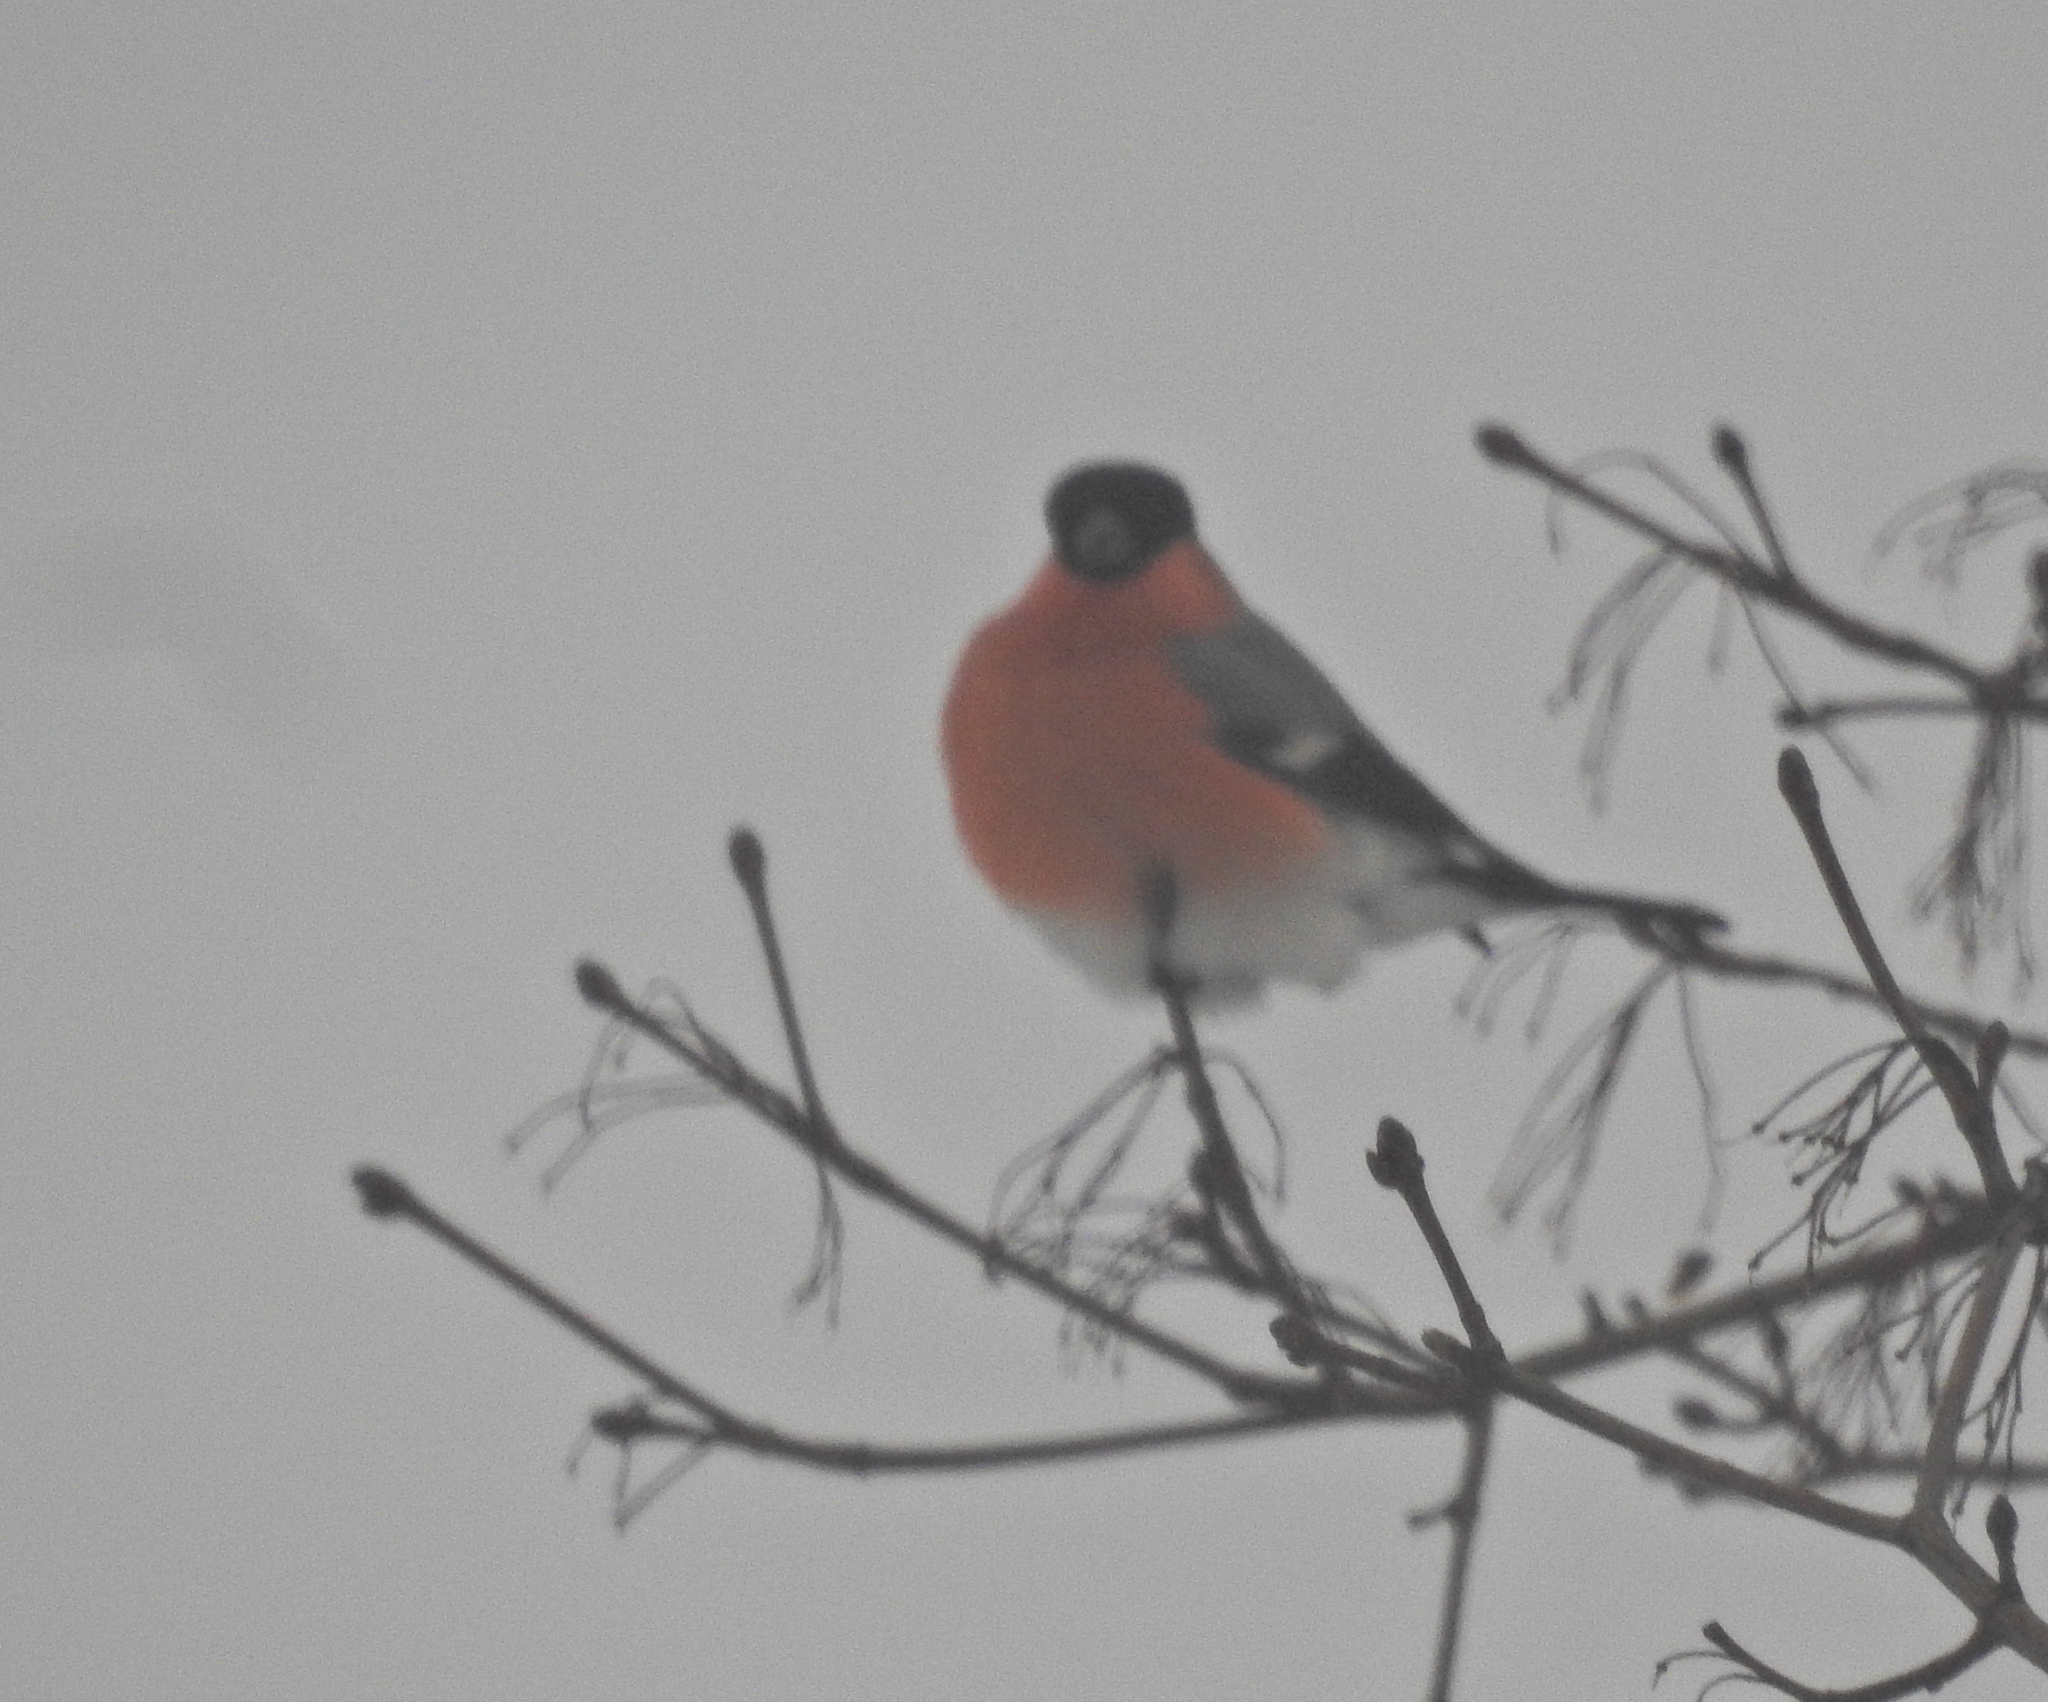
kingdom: Animalia
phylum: Chordata
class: Aves
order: Passeriformes
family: Fringillidae
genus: Pyrrhula
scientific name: Pyrrhula pyrrhula
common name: Eurasian bullfinch
